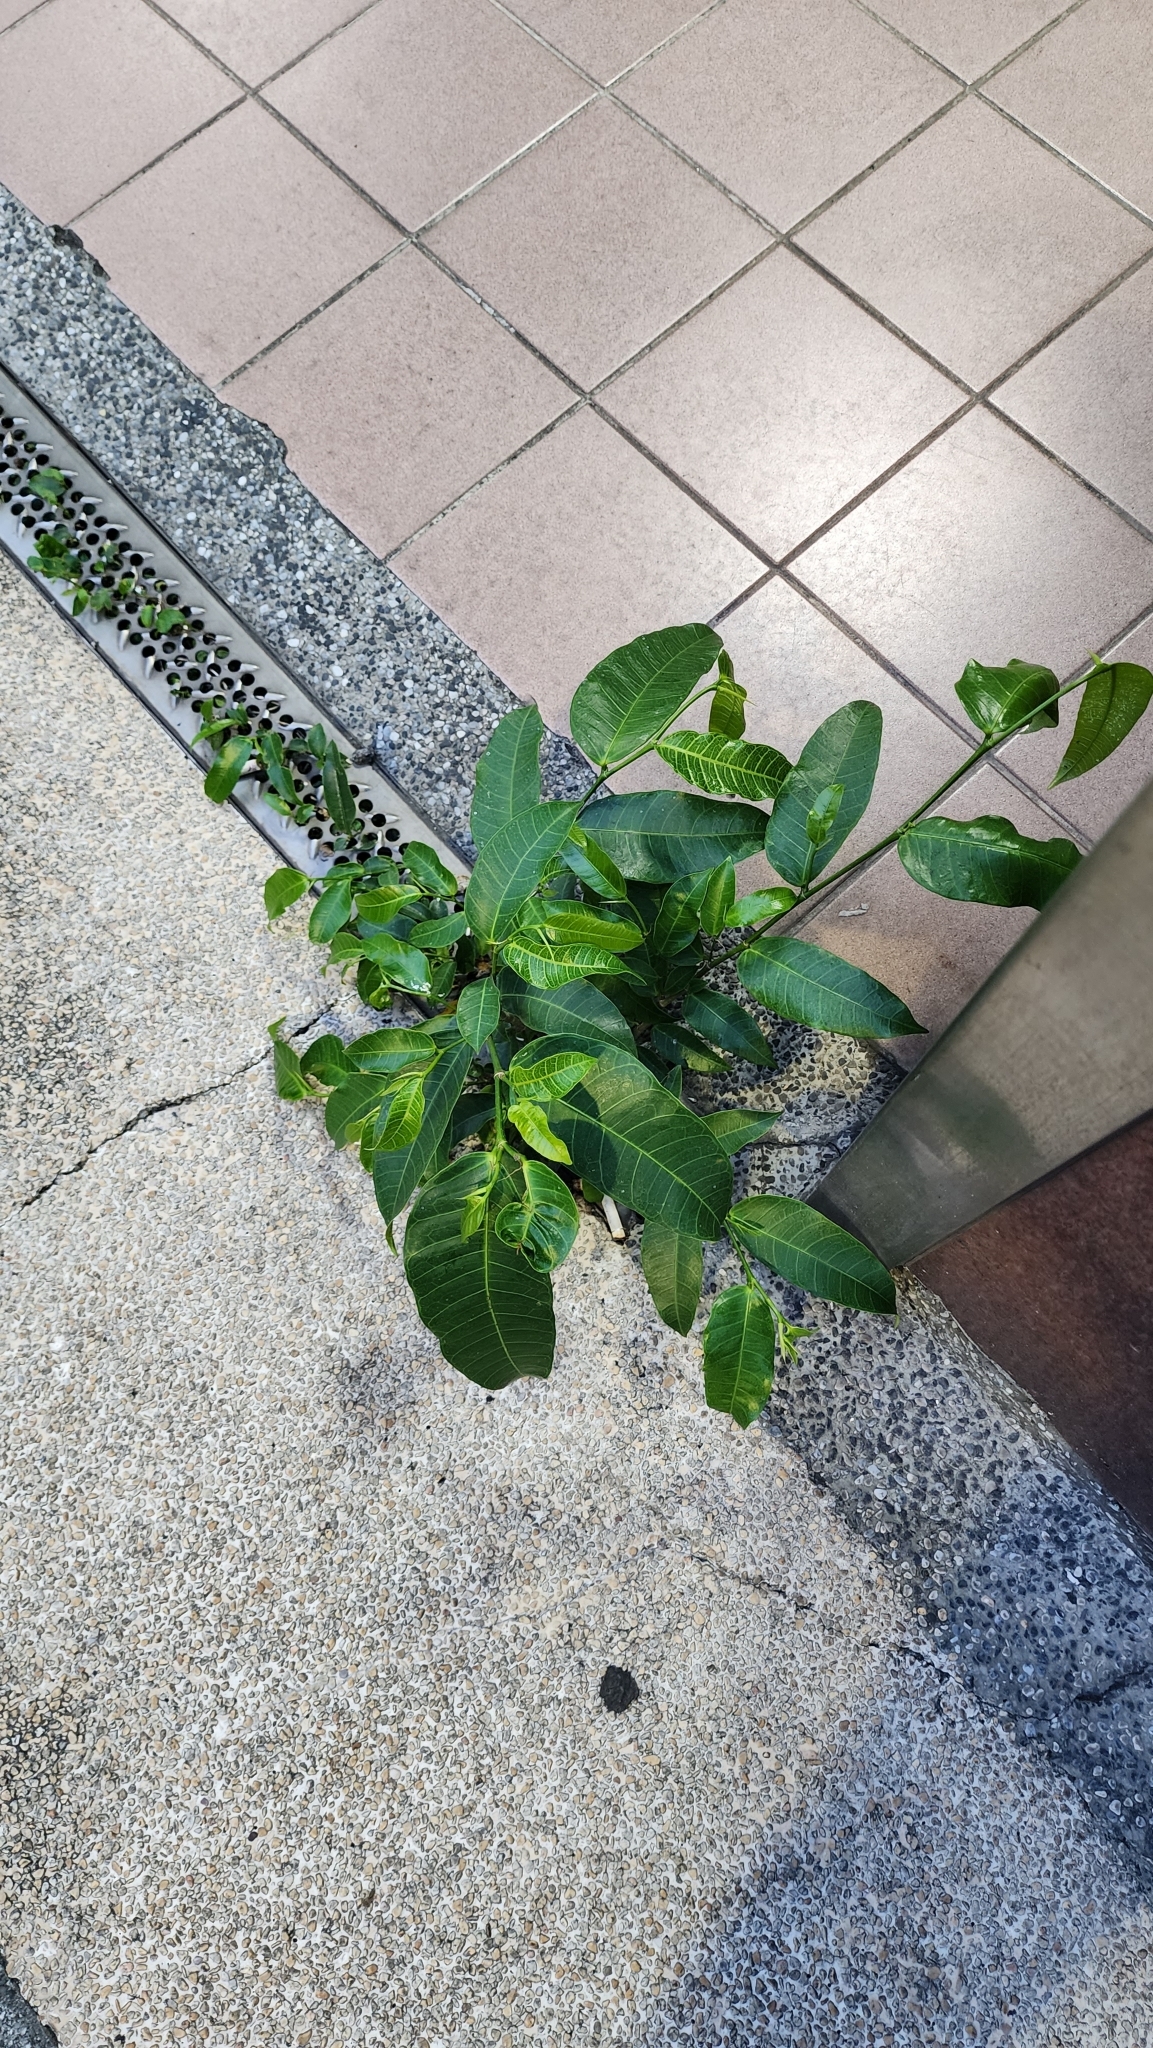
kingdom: Plantae
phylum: Tracheophyta
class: Magnoliopsida
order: Rosales
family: Moraceae
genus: Ficus
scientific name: Ficus virgata
